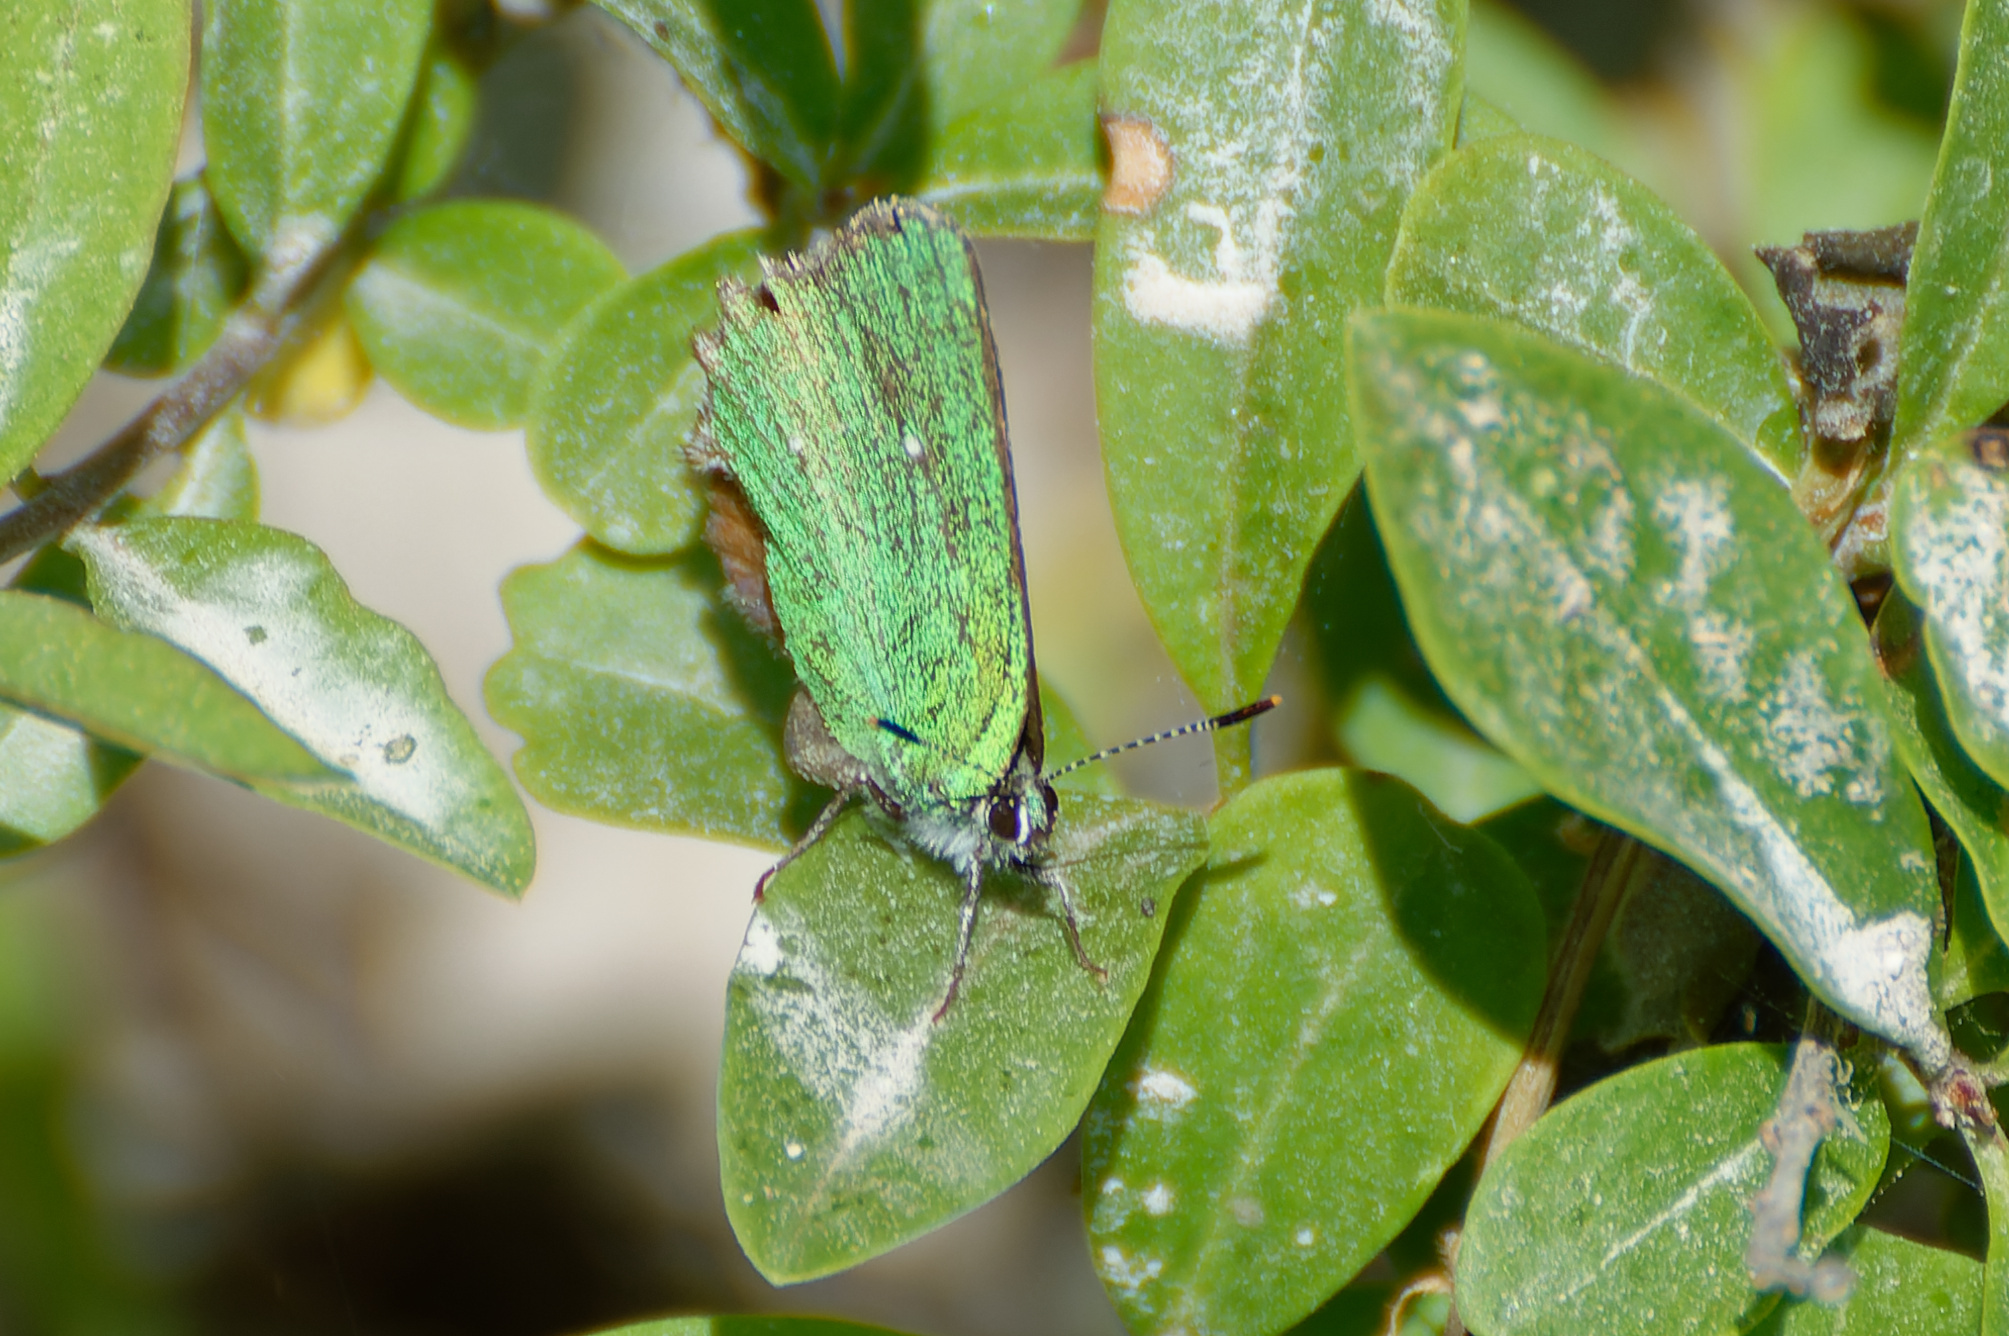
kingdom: Animalia
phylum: Arthropoda
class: Insecta
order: Lepidoptera
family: Lycaenidae
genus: Callophrys
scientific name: Callophrys rubi
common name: Green hairstreak
